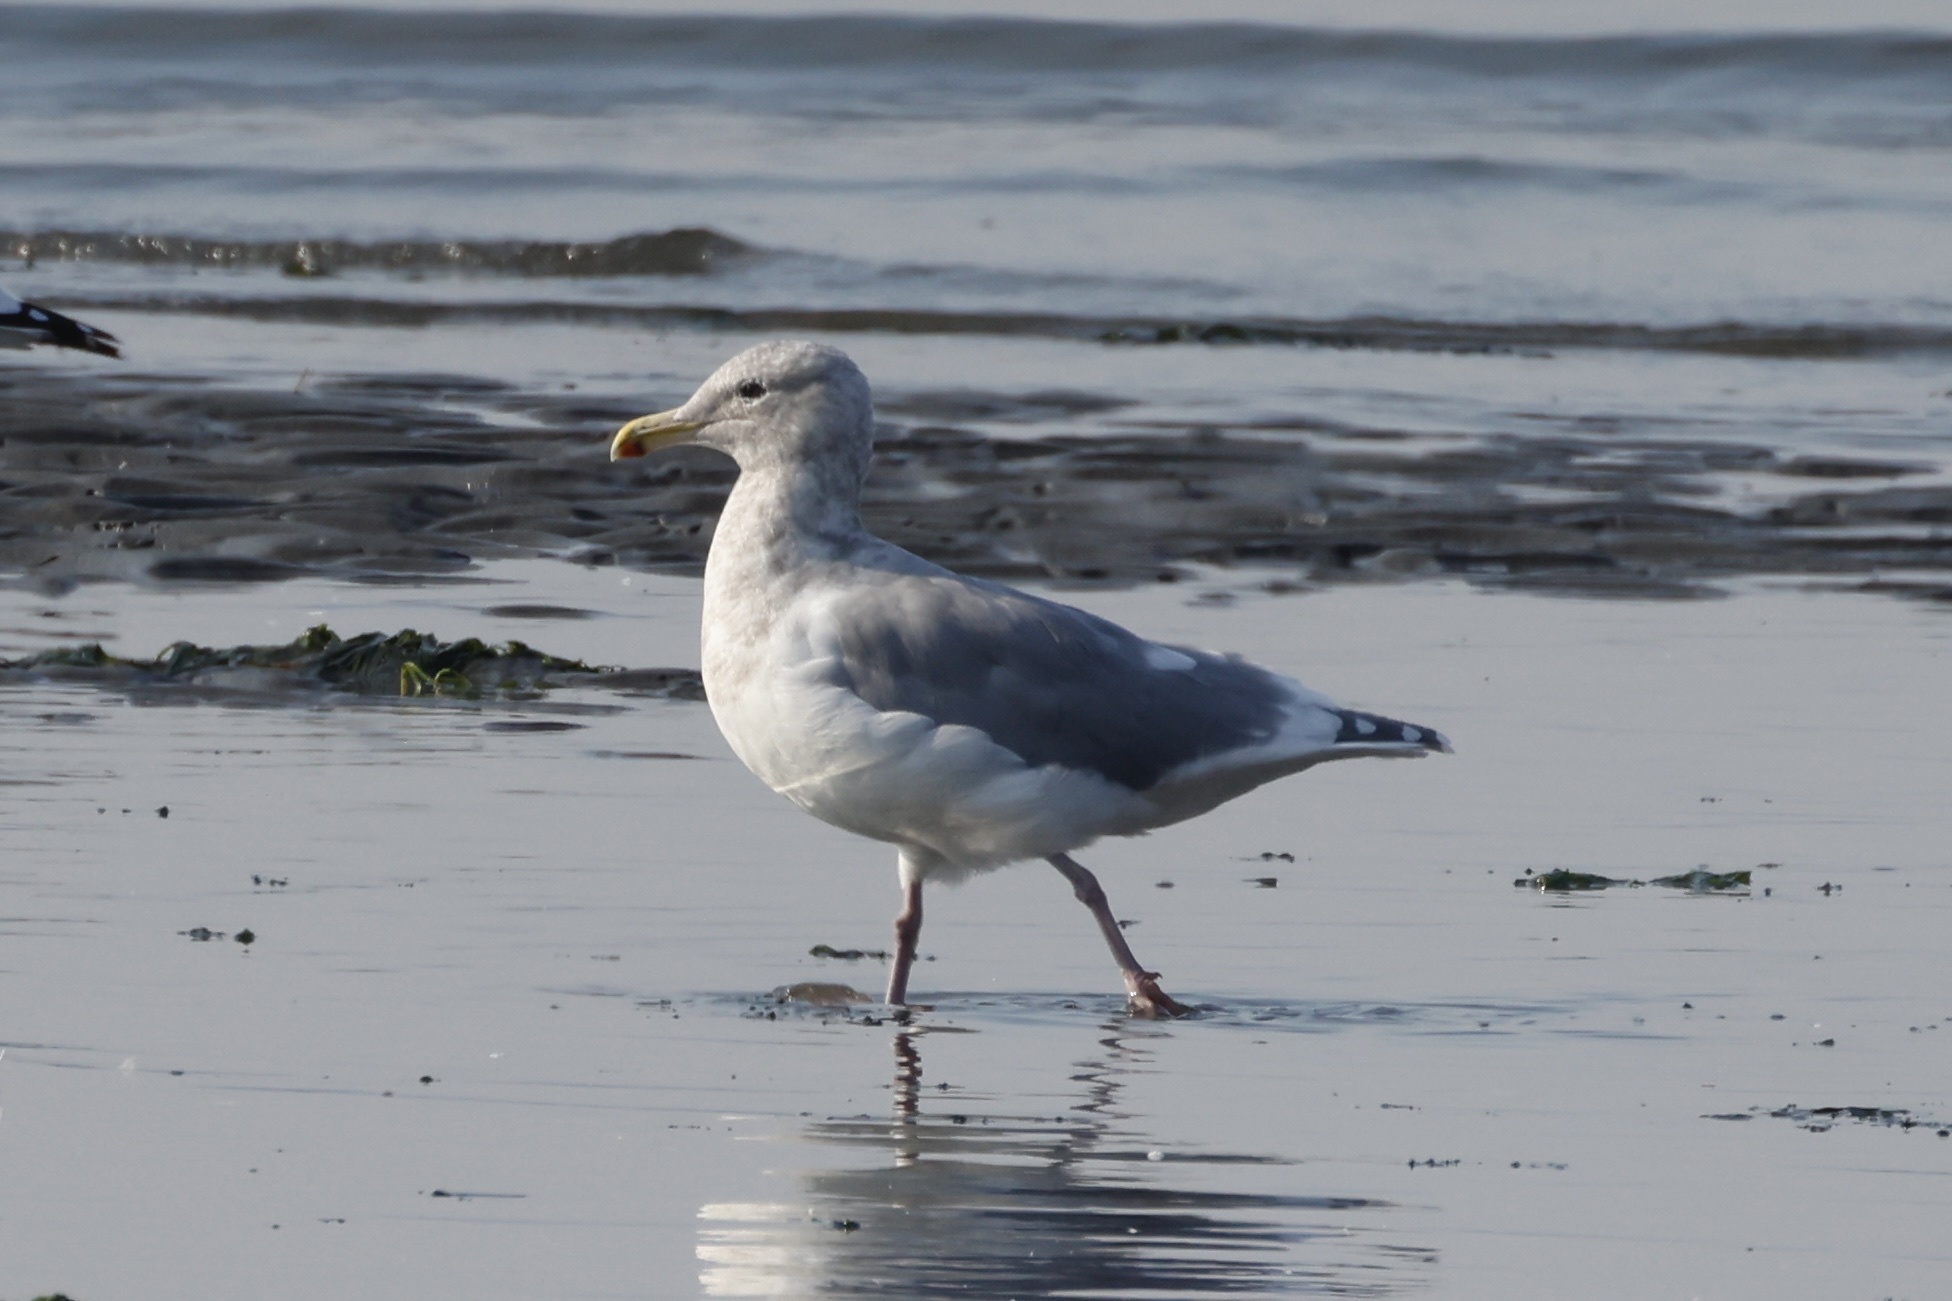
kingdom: Animalia
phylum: Chordata
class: Aves
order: Charadriiformes
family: Laridae
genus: Larus
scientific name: Larus glaucescens
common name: Glaucous-winged gull
